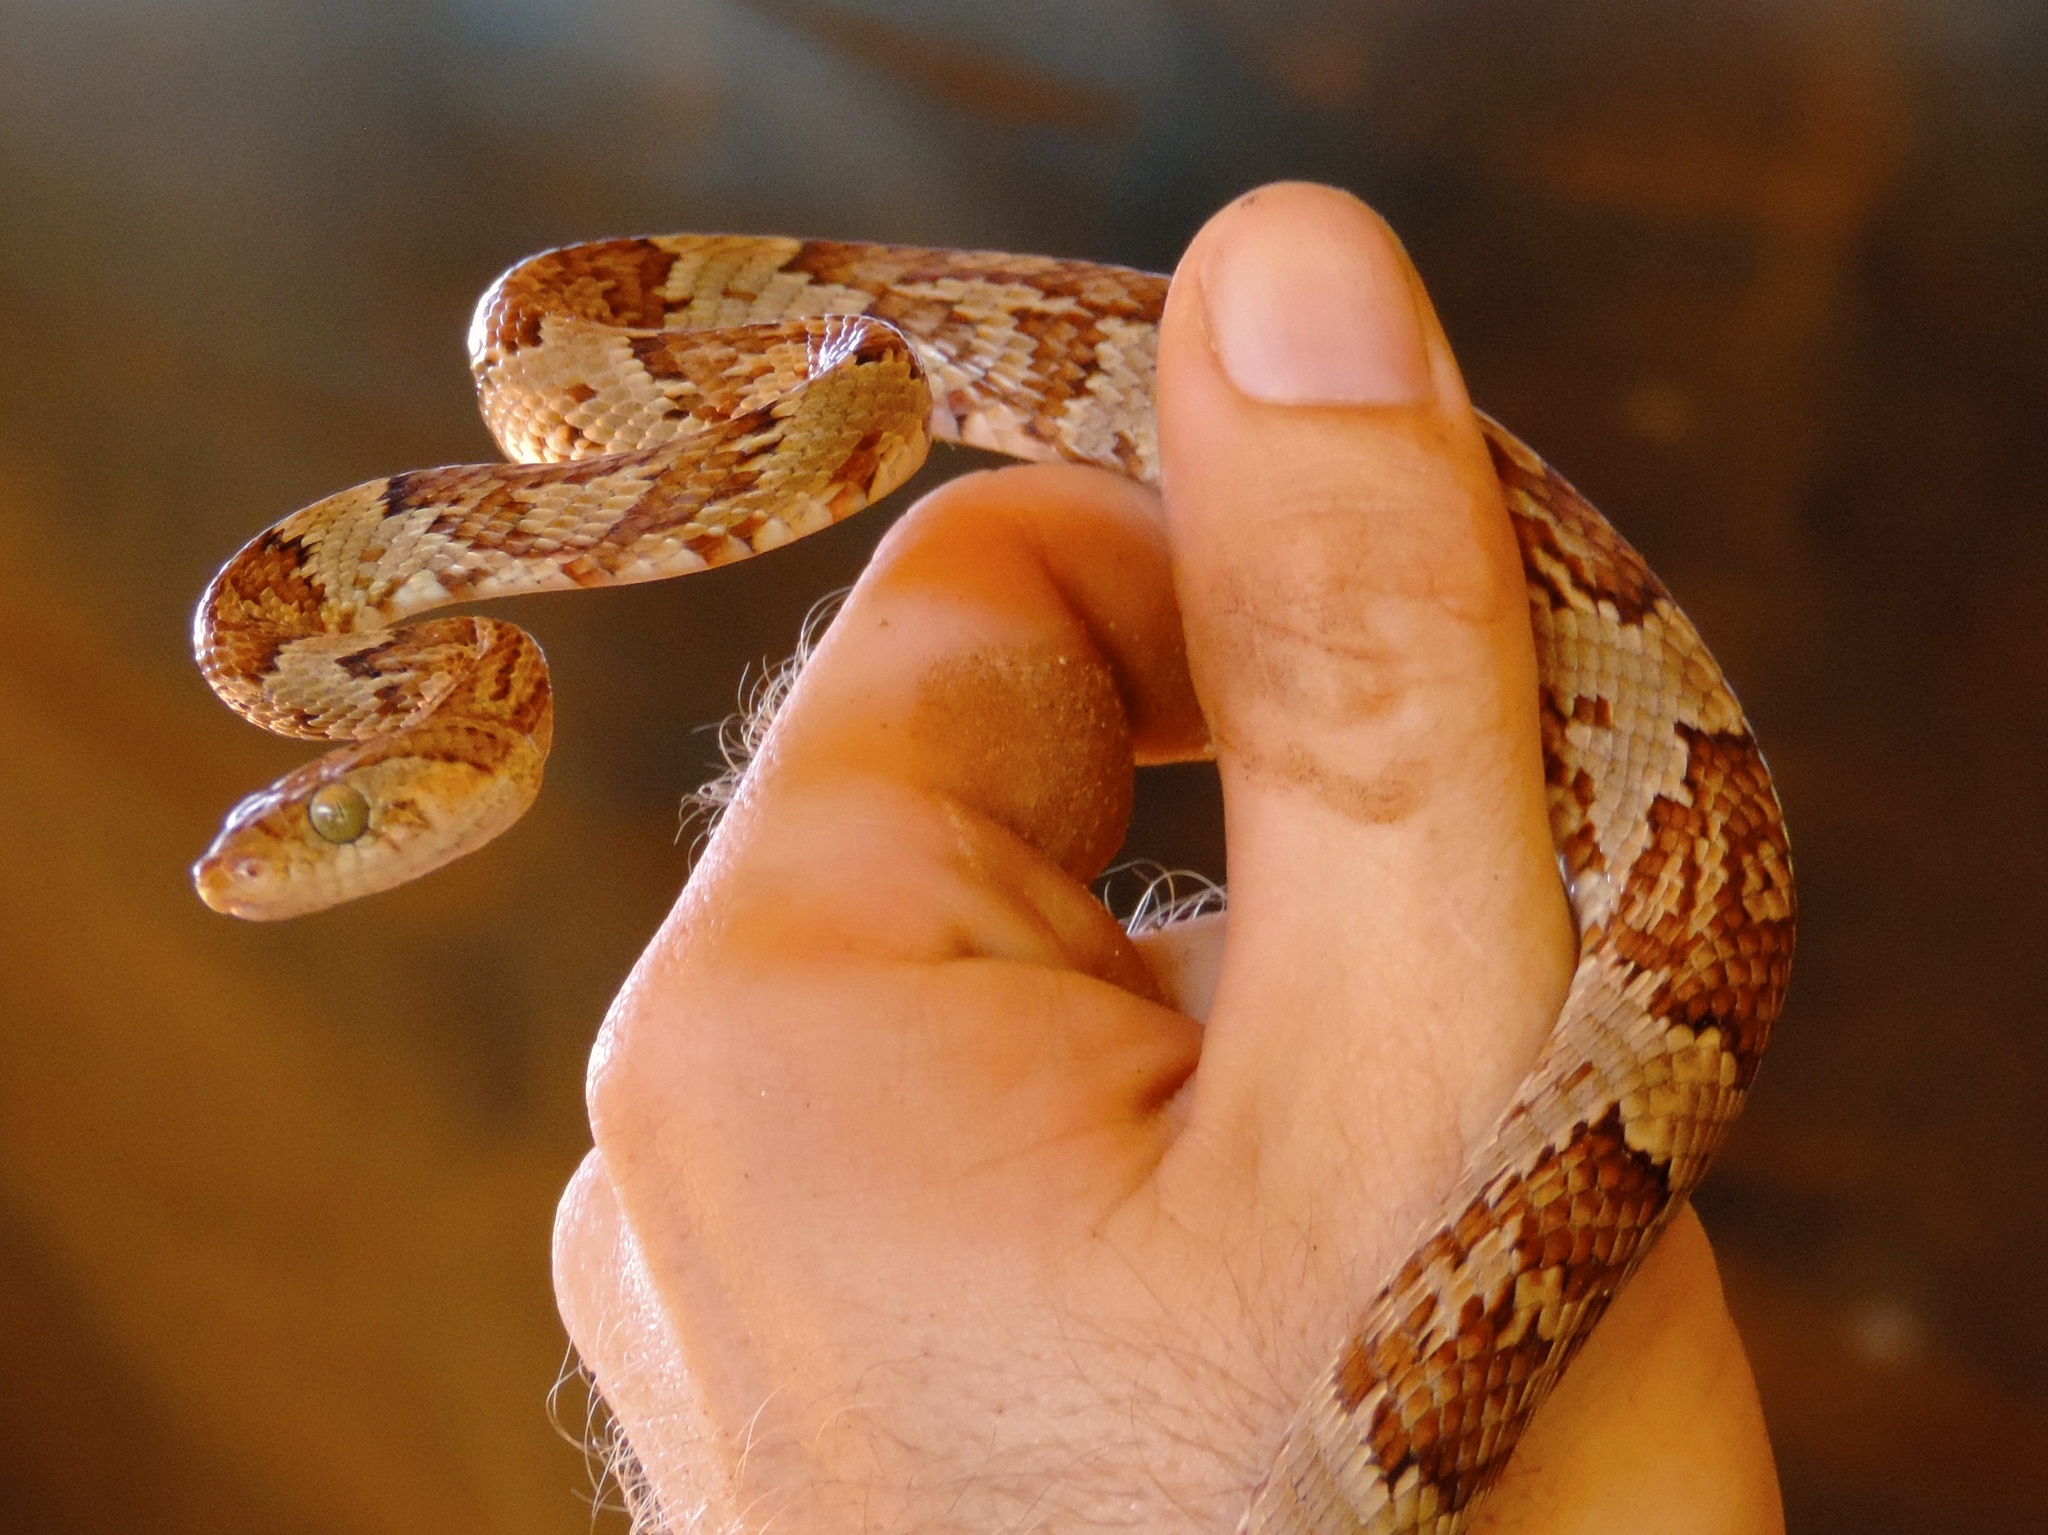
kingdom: Animalia
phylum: Chordata
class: Squamata
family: Colubridae
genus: Trimorphodon
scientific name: Trimorphodon paucimaculatus
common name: Sinaloan lyresnake
